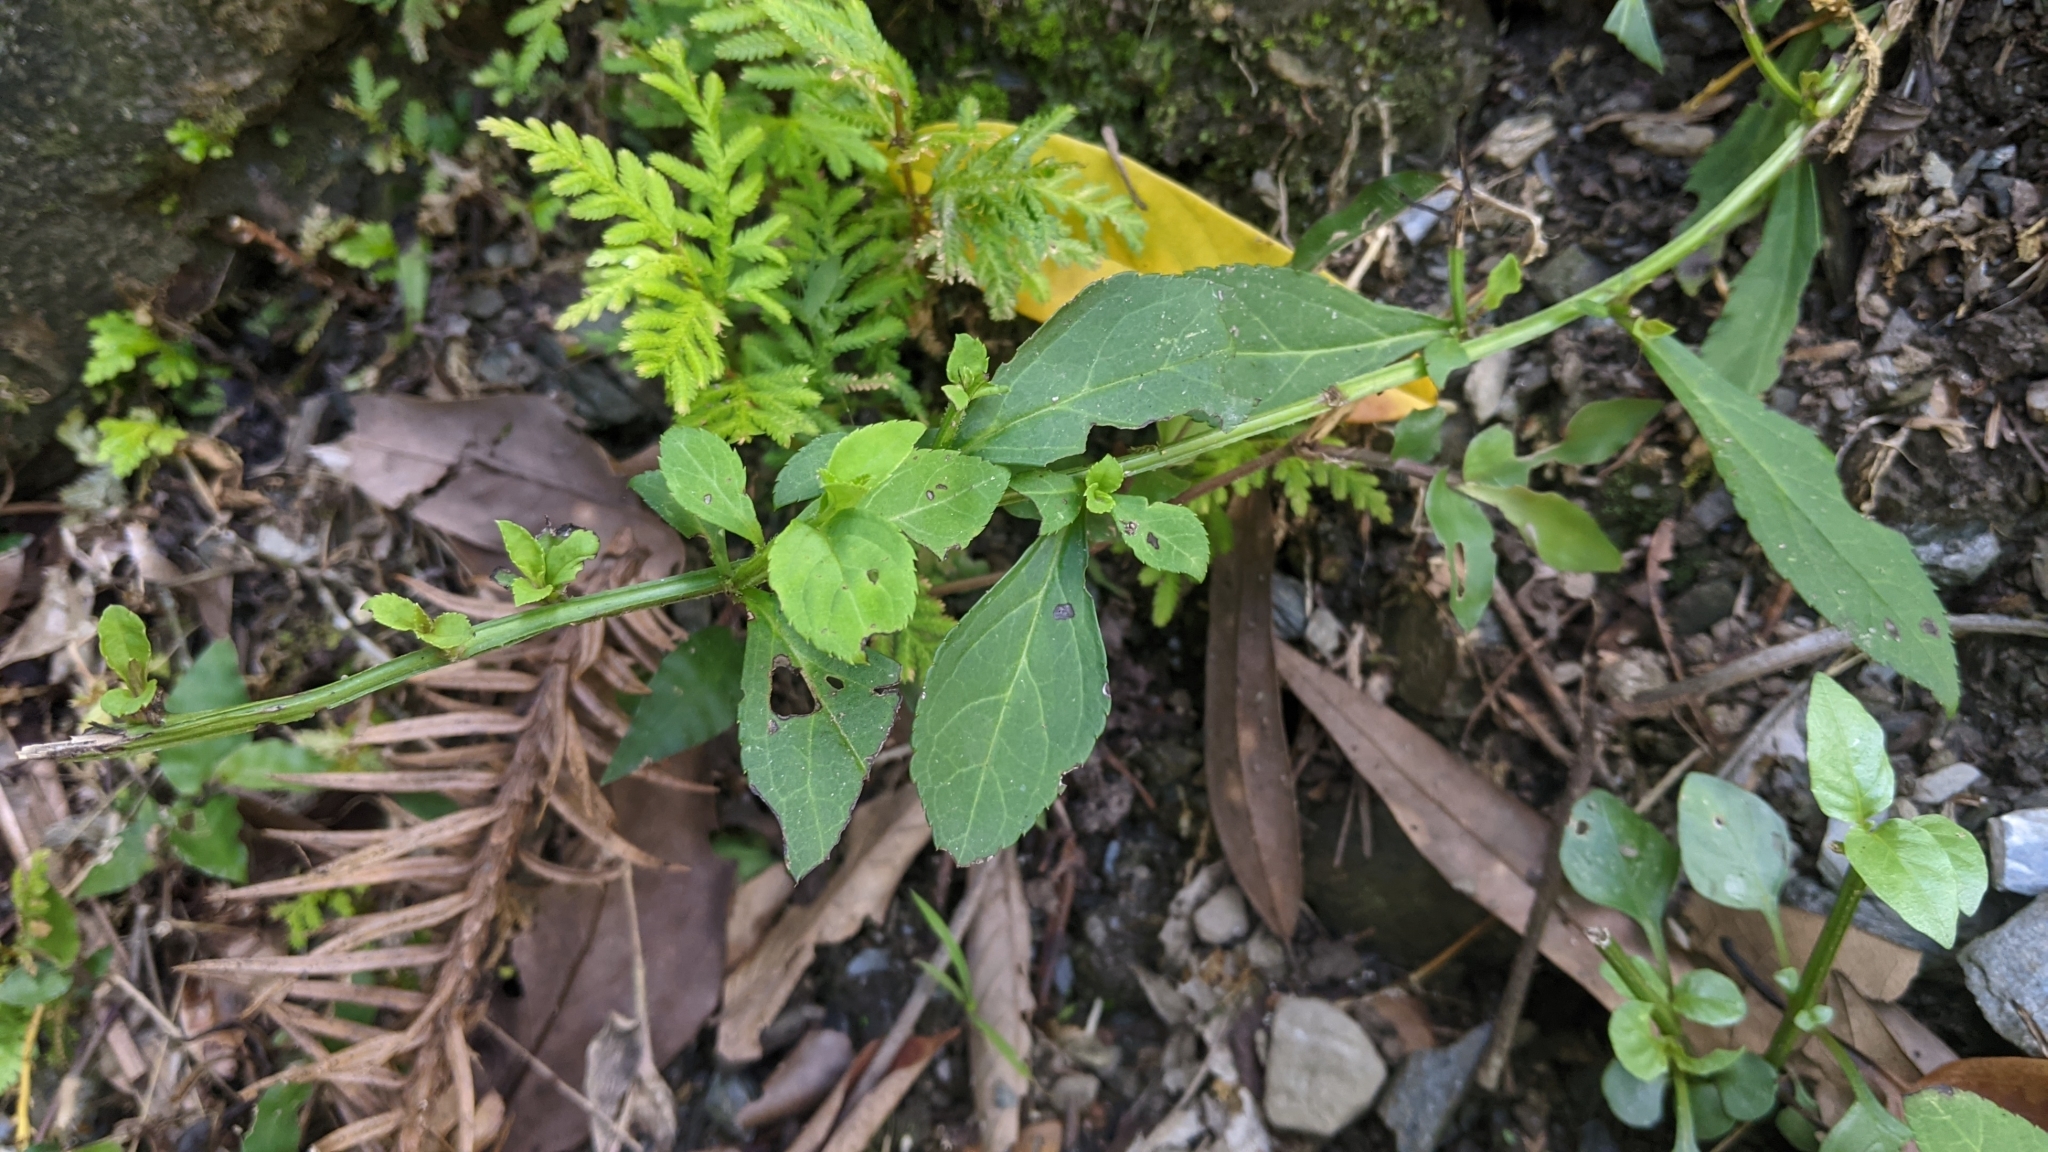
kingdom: Plantae
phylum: Tracheophyta
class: Magnoliopsida
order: Lamiales
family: Plantaginaceae
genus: Veronicastrum
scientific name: Veronicastrum loshanense
